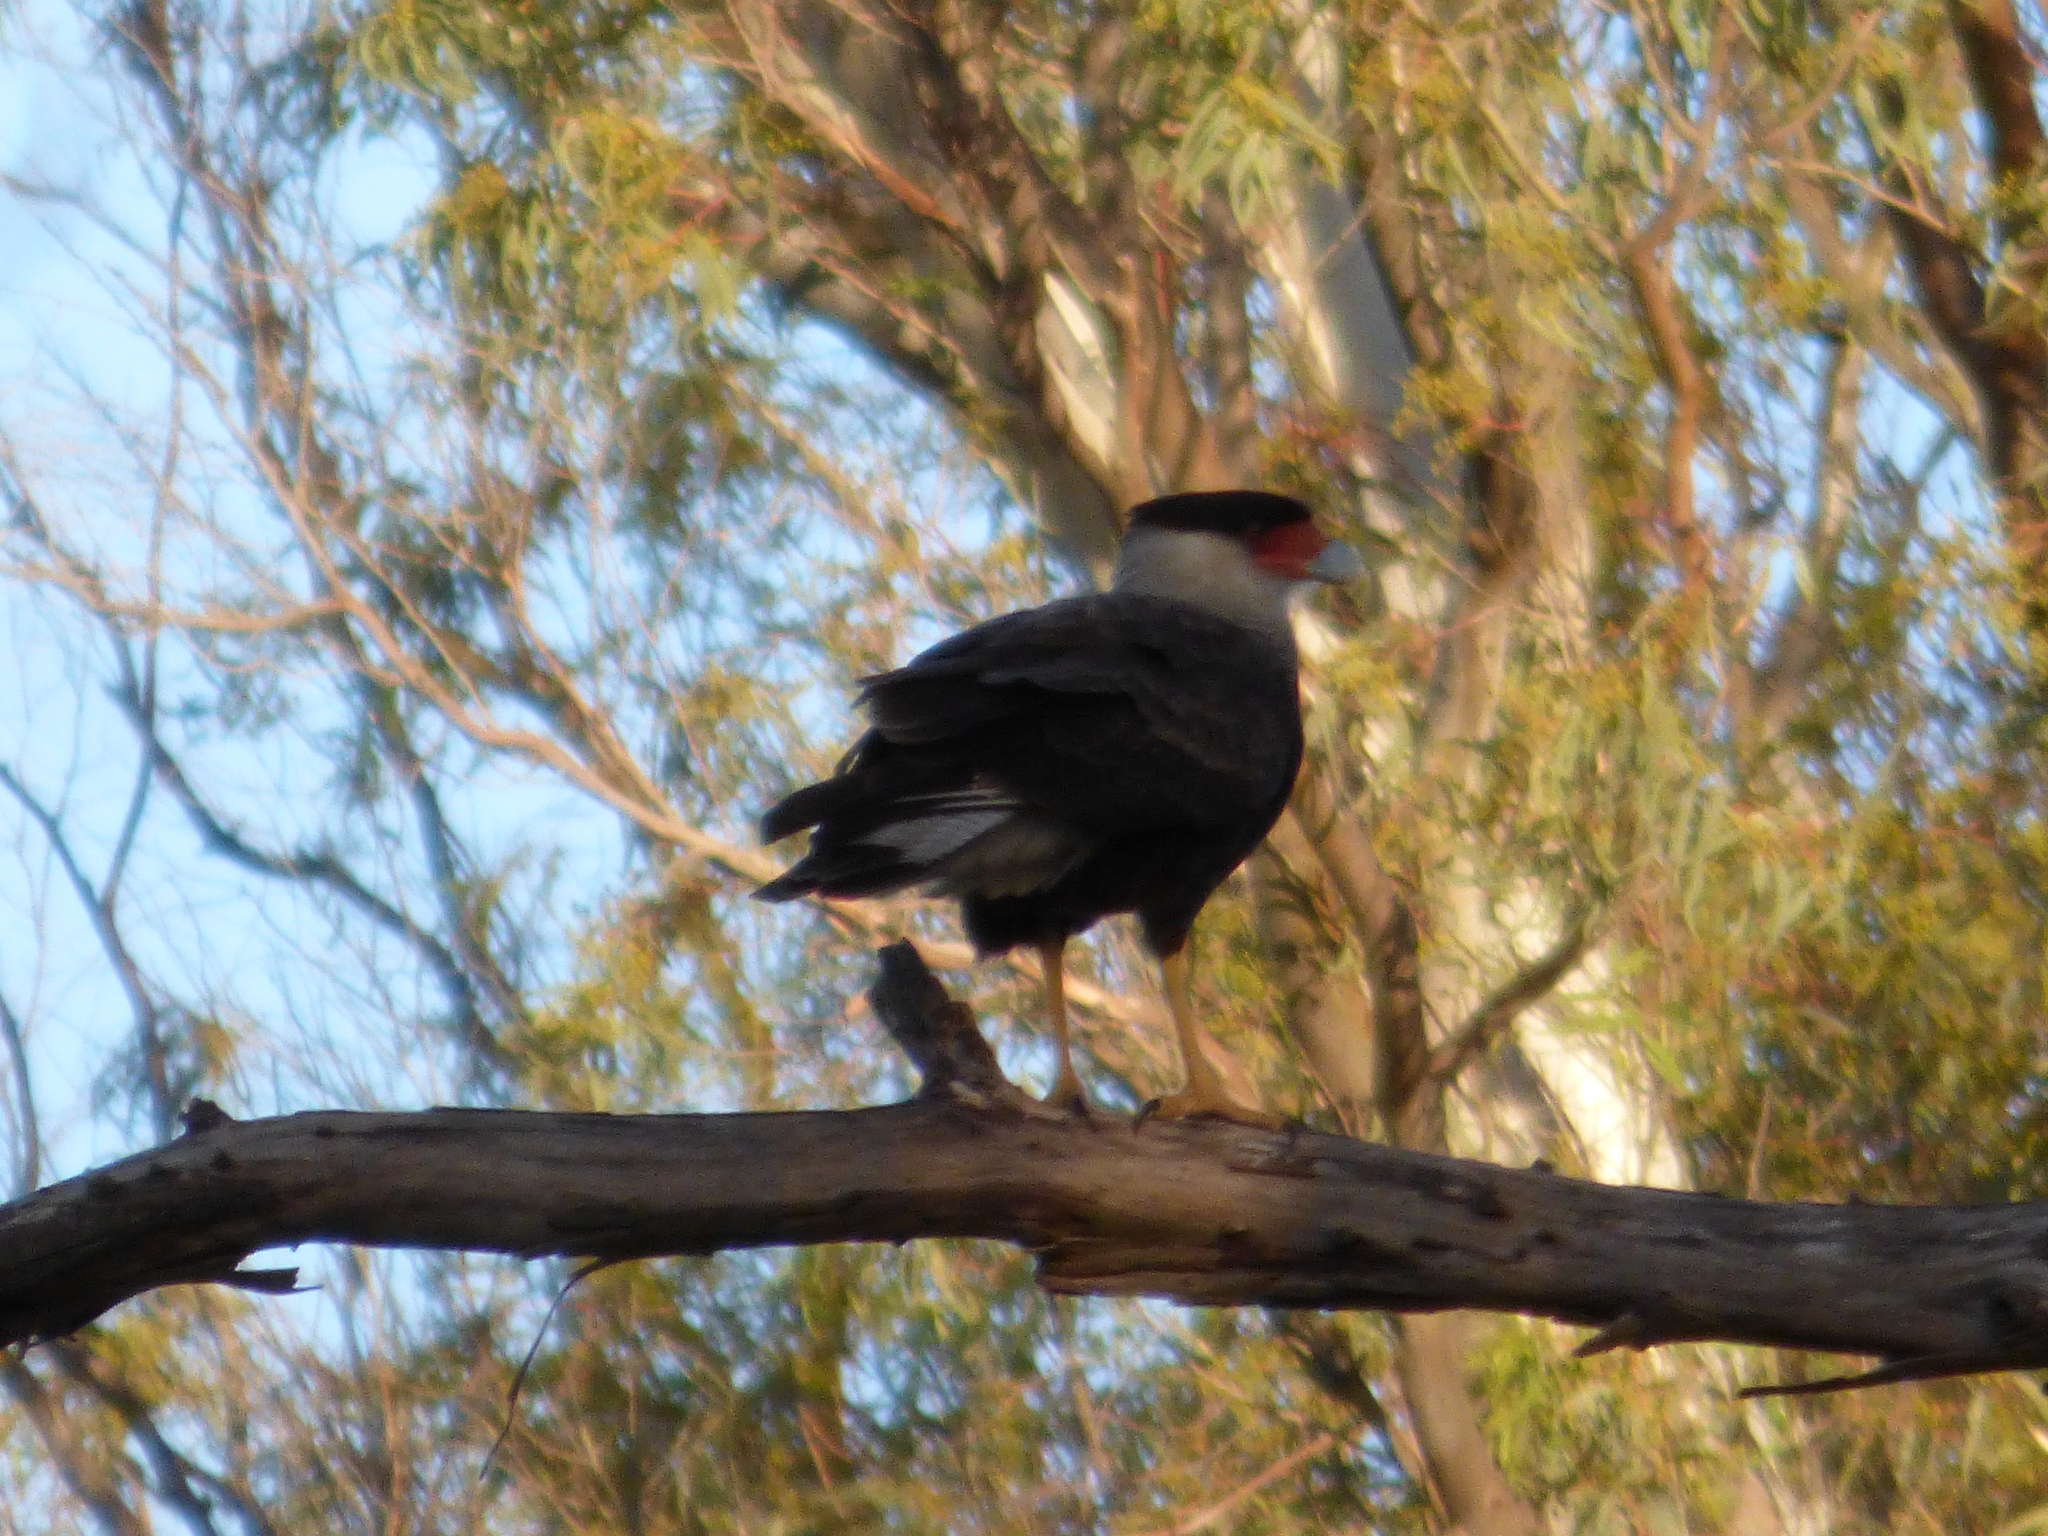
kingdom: Animalia
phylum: Chordata
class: Aves
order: Falconiformes
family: Falconidae
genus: Caracara
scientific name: Caracara plancus
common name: Southern caracara
